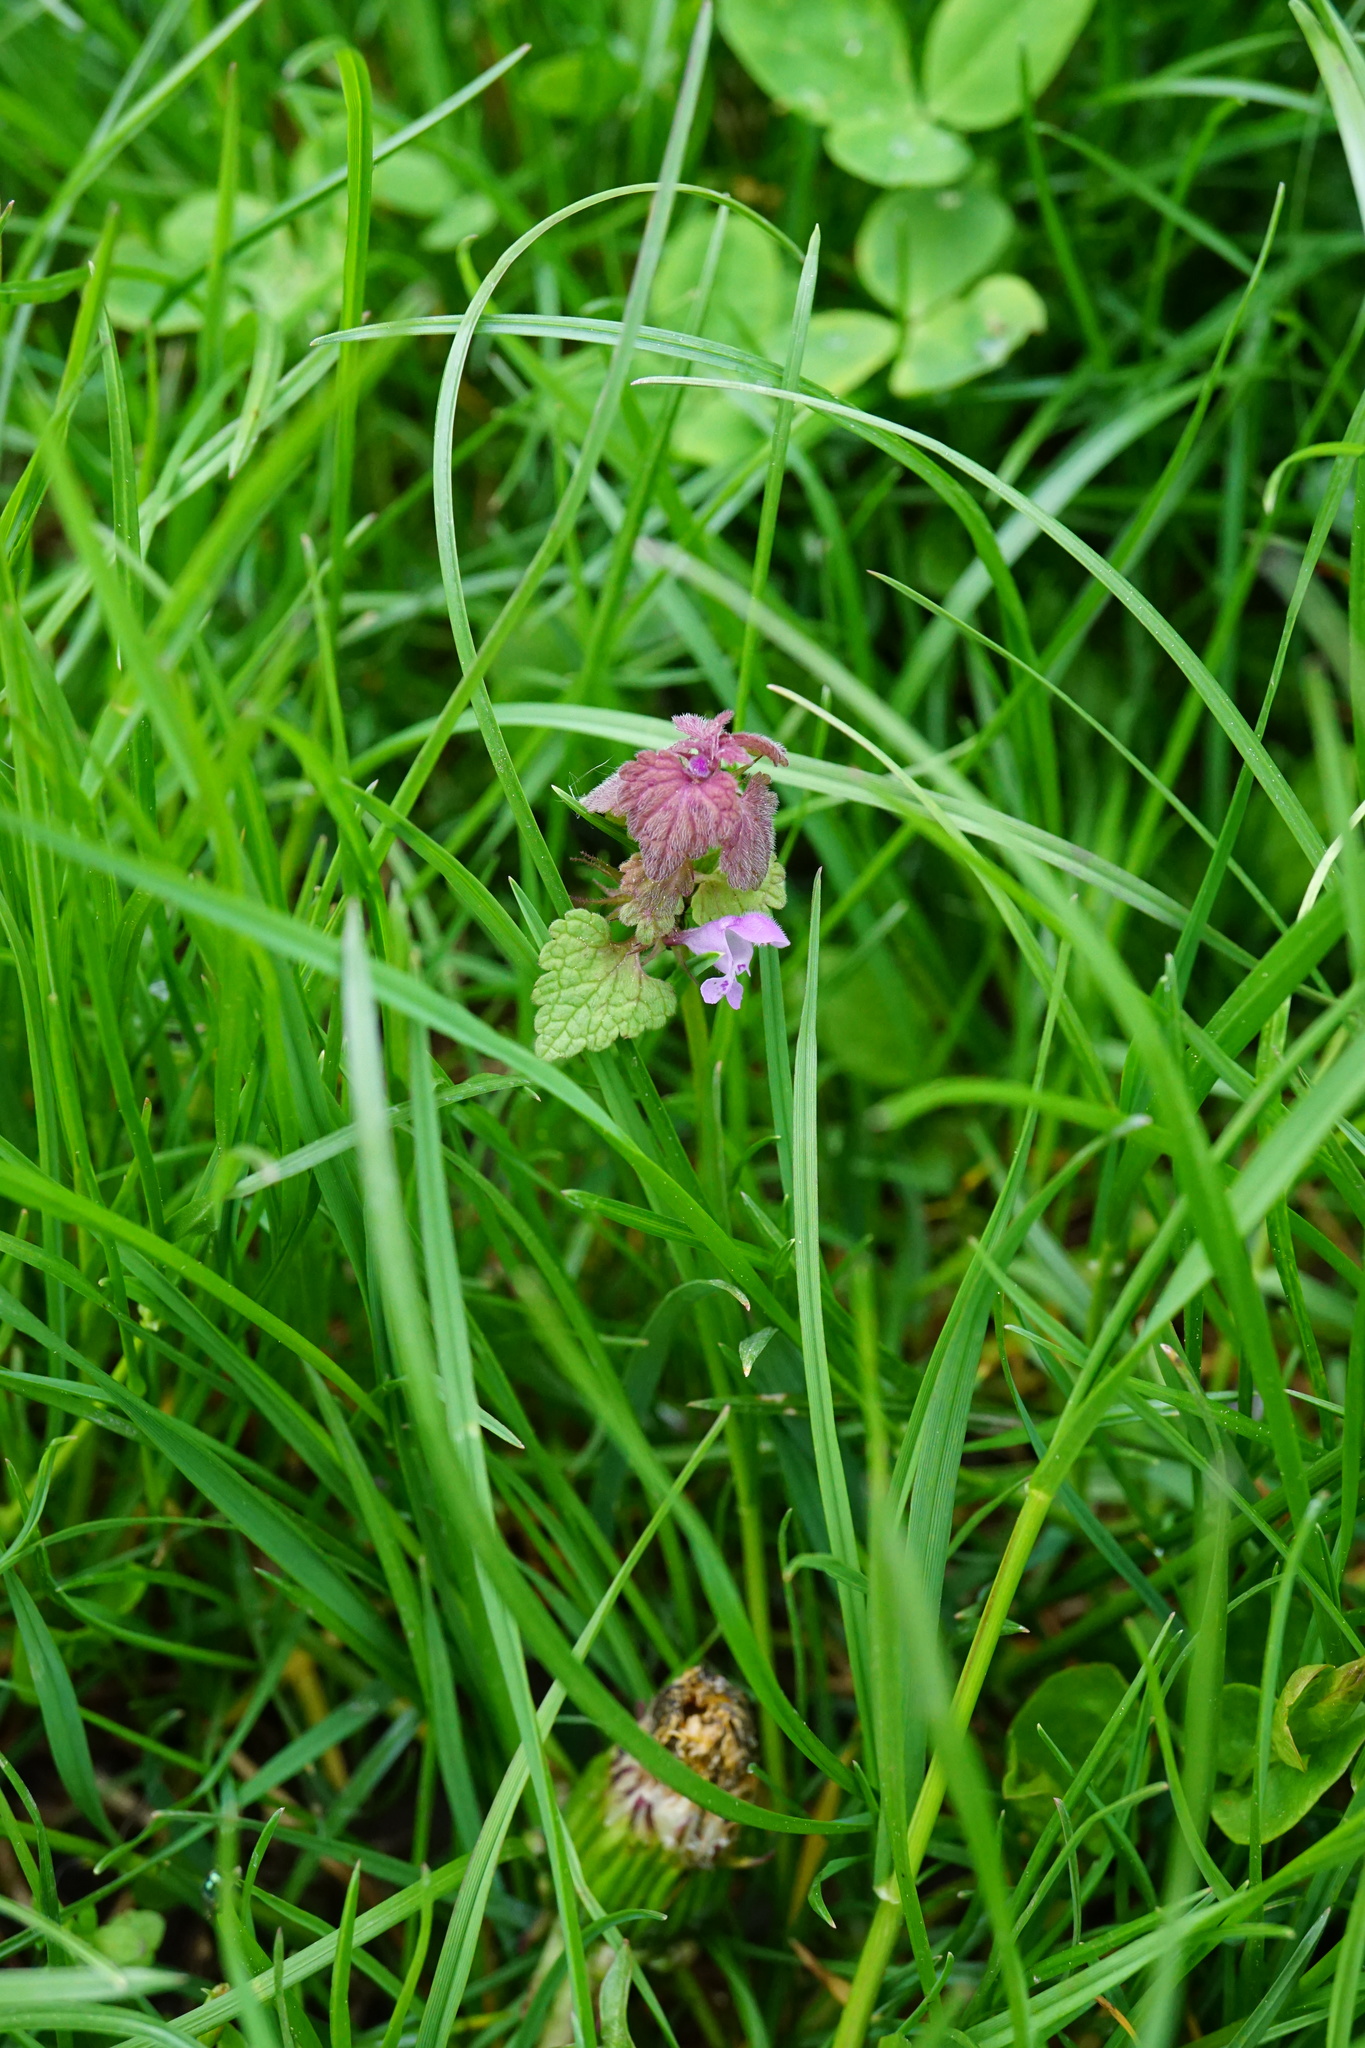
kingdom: Plantae
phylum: Tracheophyta
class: Magnoliopsida
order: Lamiales
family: Lamiaceae
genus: Lamium
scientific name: Lamium purpureum
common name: Red dead-nettle
